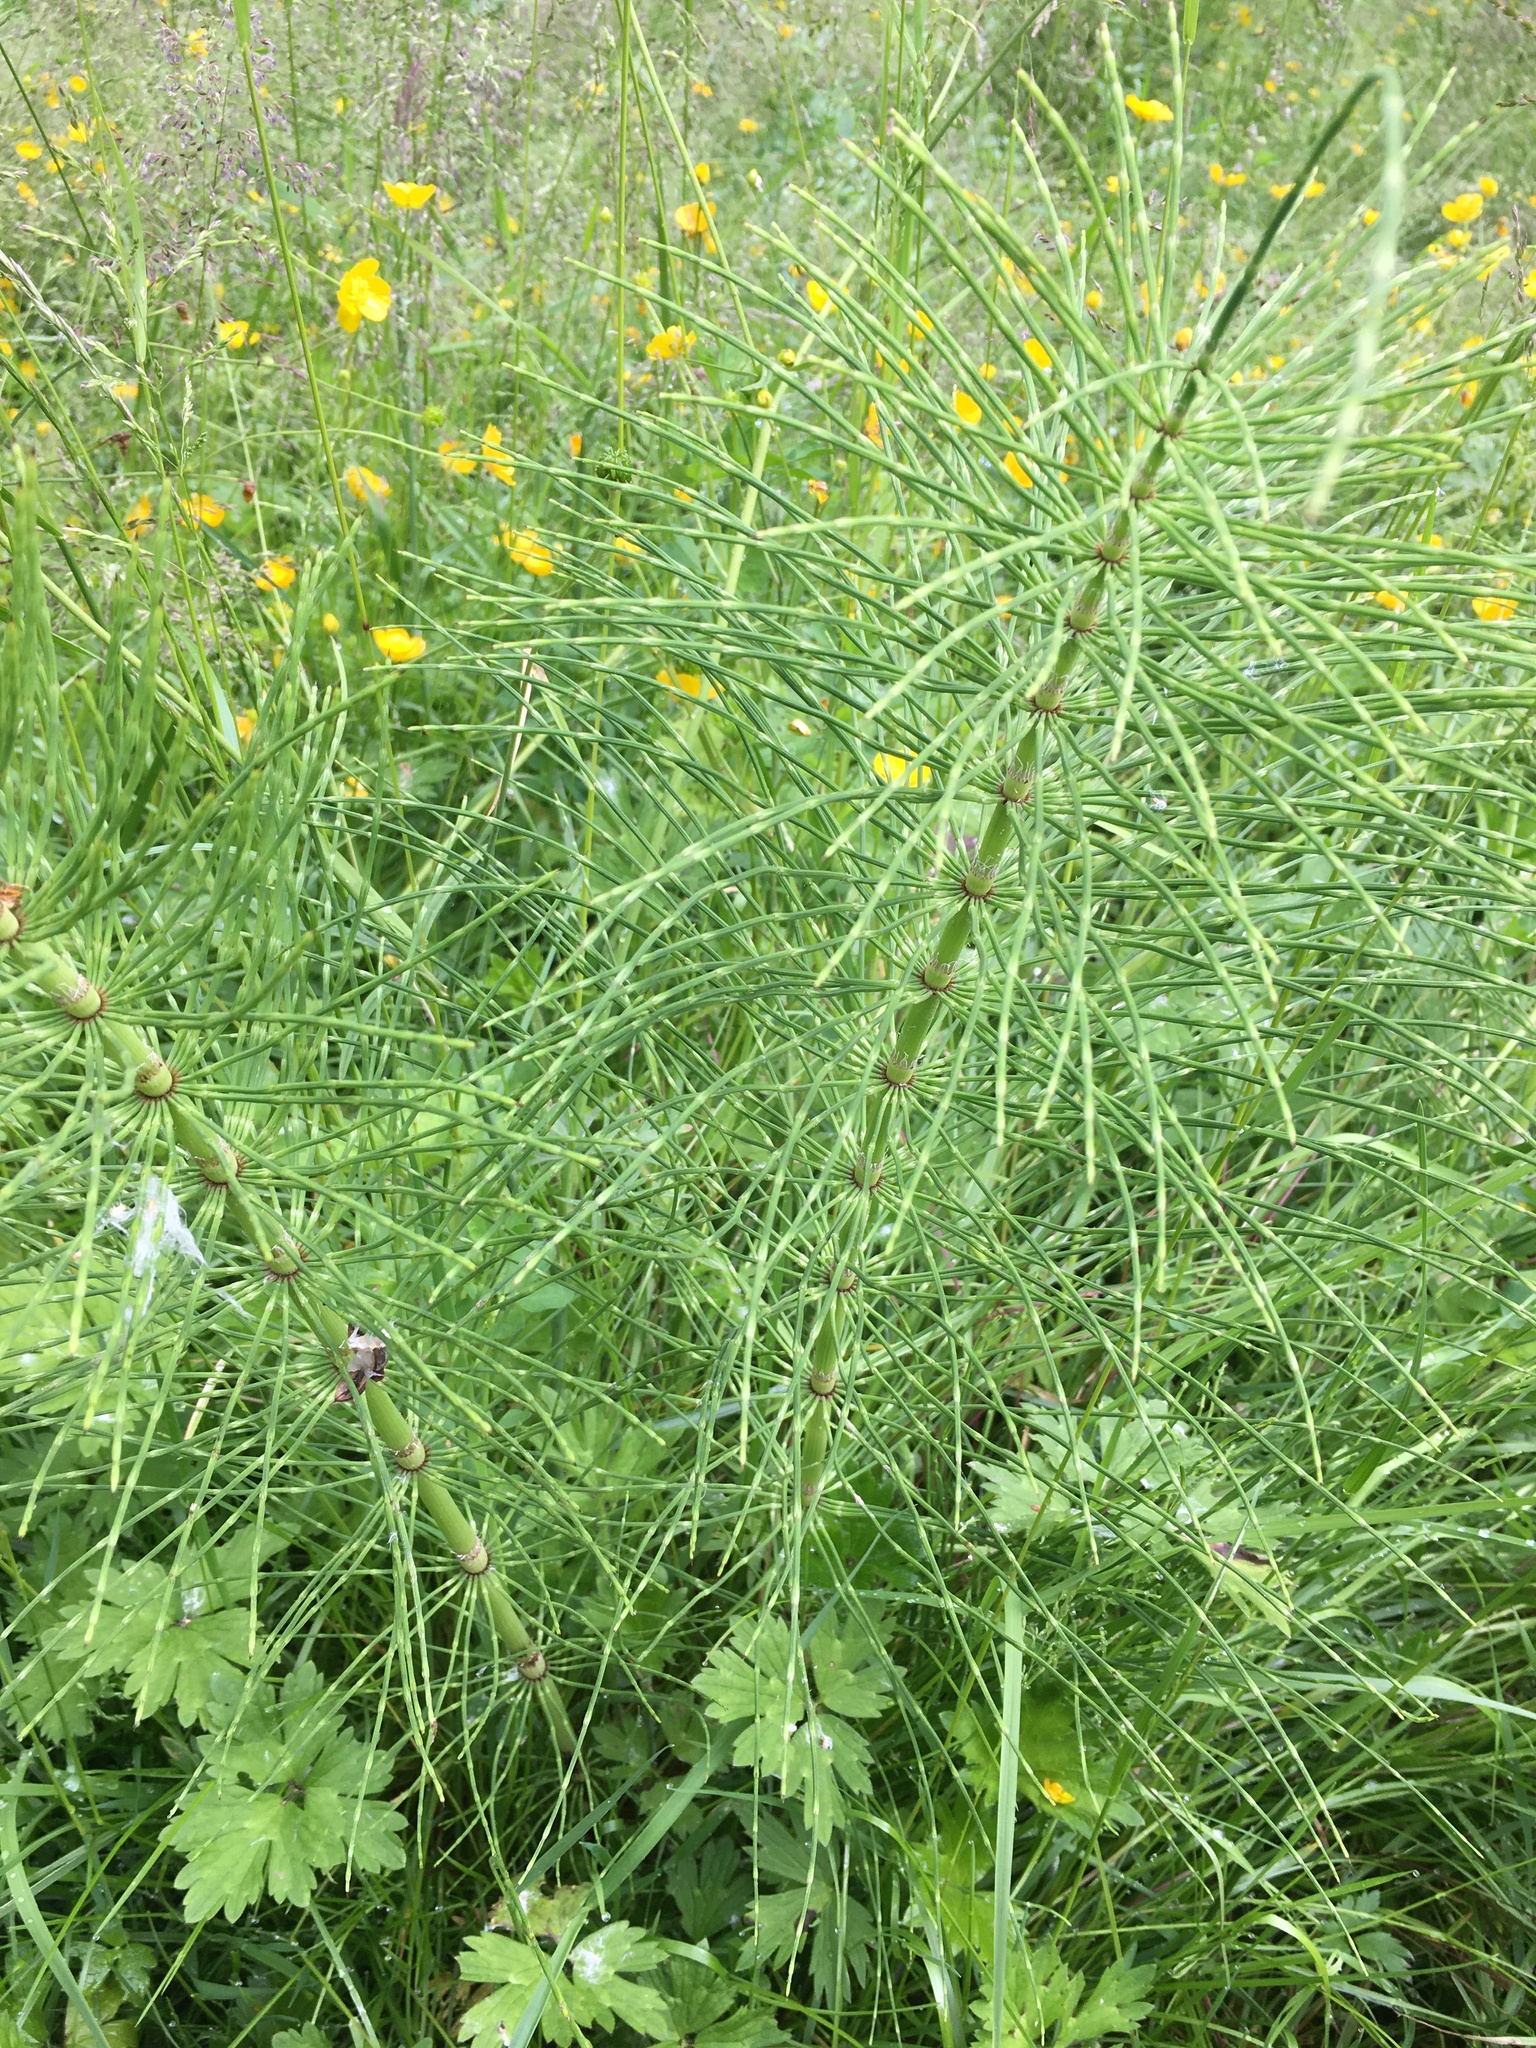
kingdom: Plantae
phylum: Tracheophyta
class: Polypodiopsida
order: Equisetales
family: Equisetaceae
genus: Equisetum
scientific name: Equisetum telmateia
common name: Great horsetail
